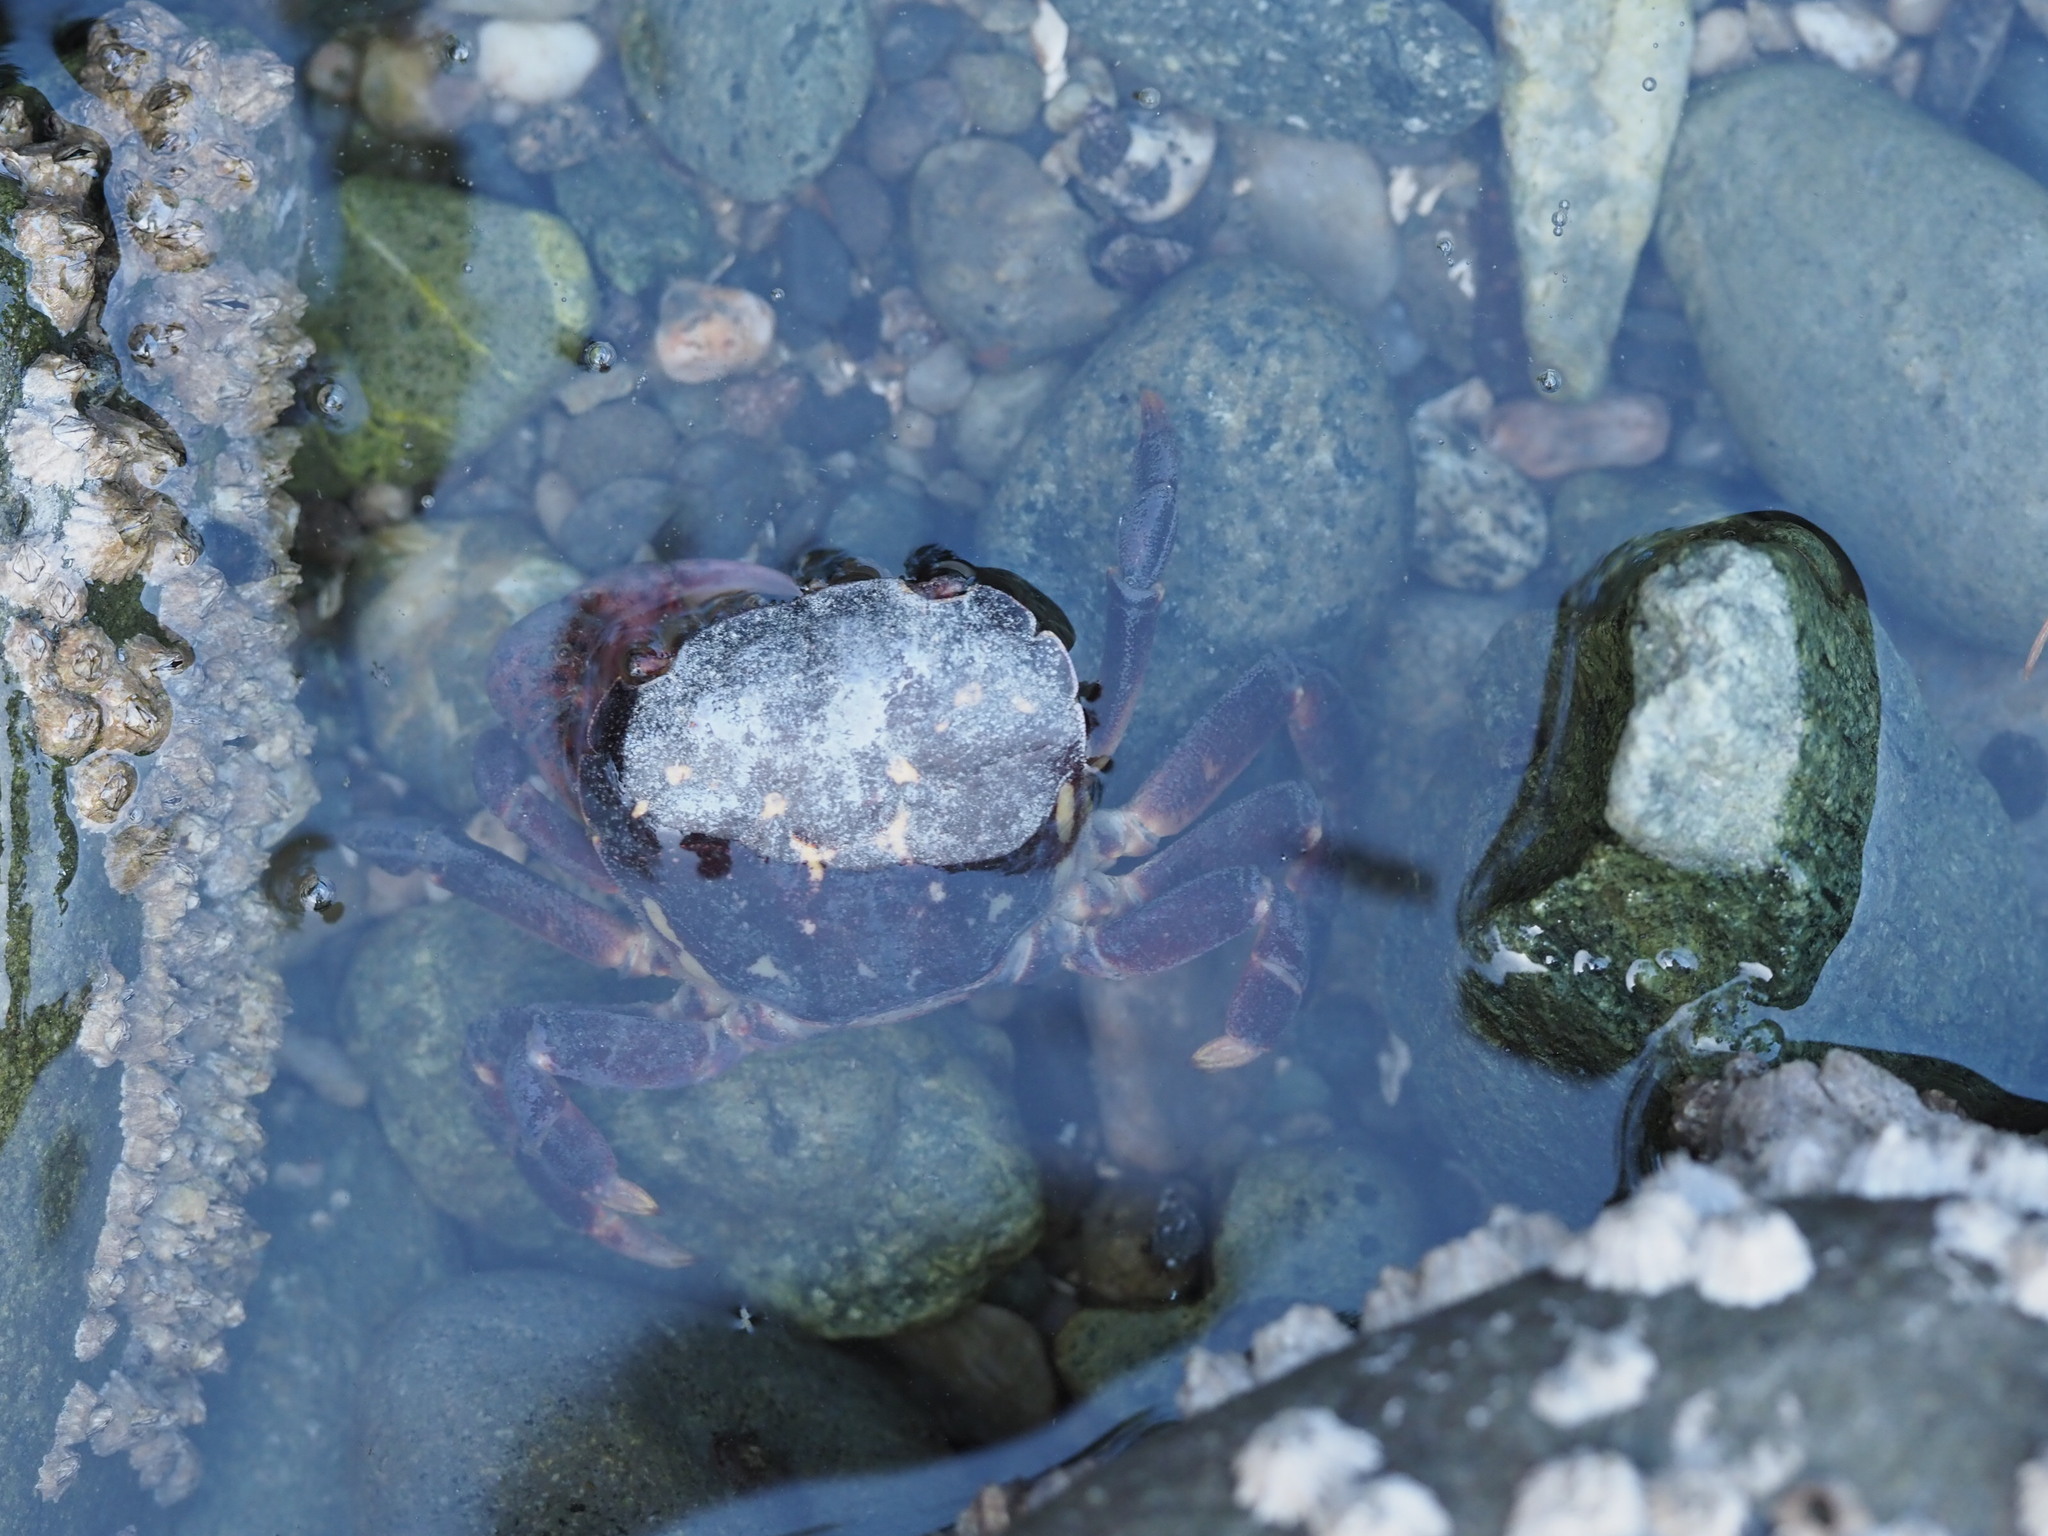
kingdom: Animalia
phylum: Arthropoda
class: Malacostraca
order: Decapoda
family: Varunidae
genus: Hemigrapsus
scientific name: Hemigrapsus nudus
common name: Purple shore crab
